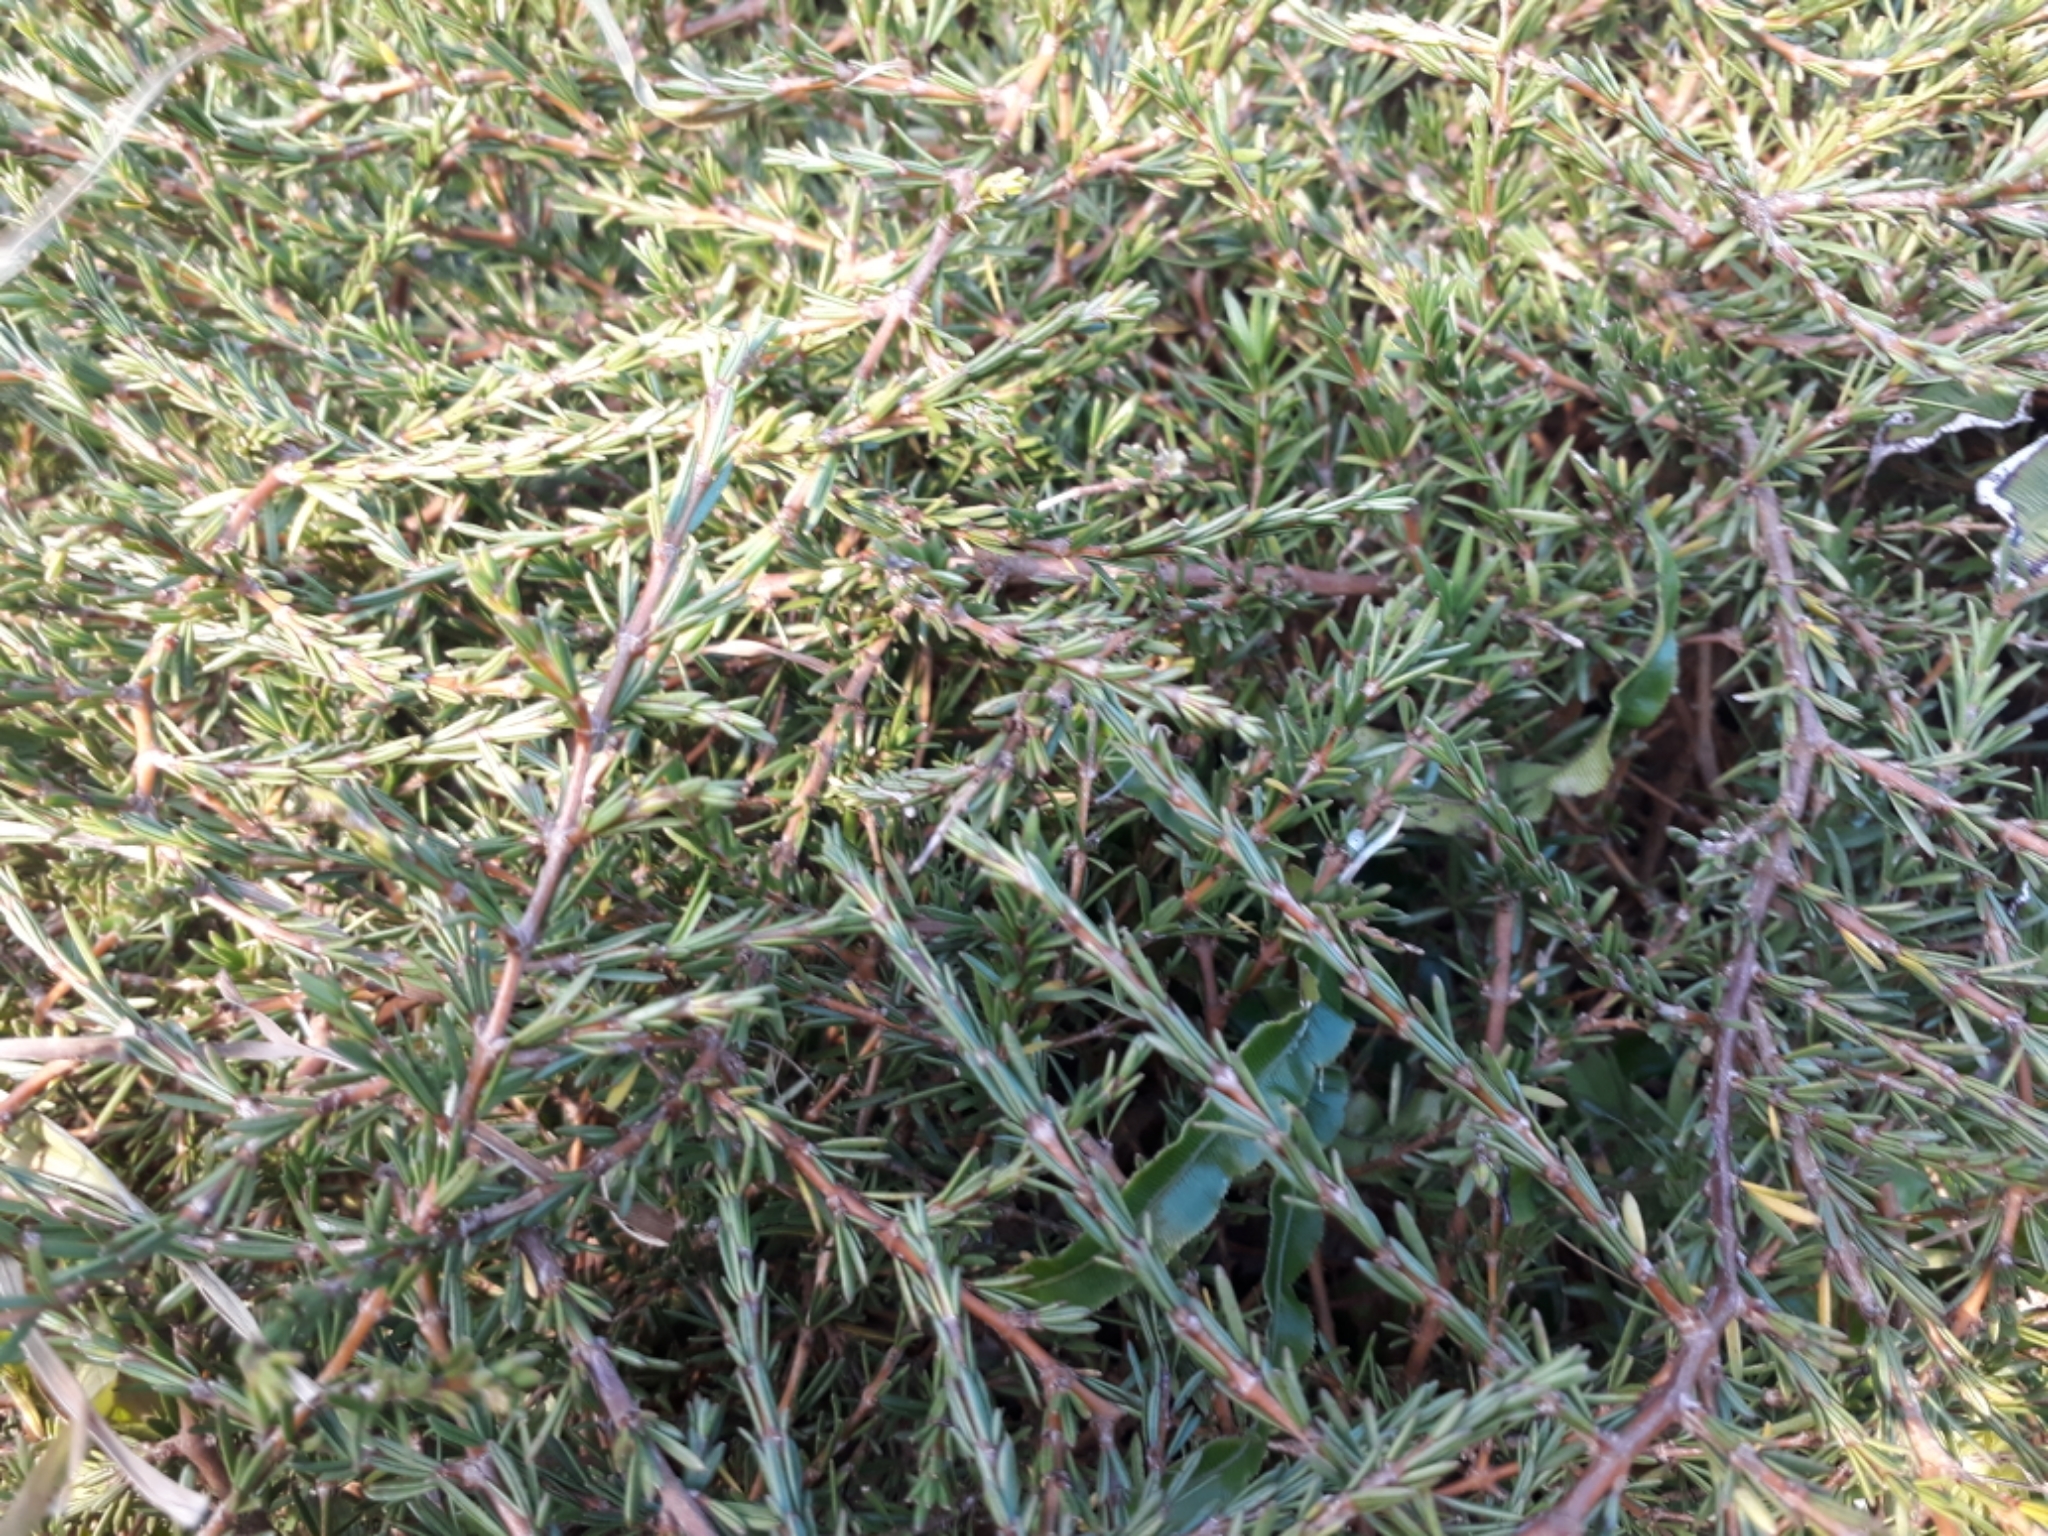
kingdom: Plantae
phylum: Tracheophyta
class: Magnoliopsida
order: Gentianales
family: Rubiaceae
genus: Coprosma
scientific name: Coprosma acerosa
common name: Sand coprosma
